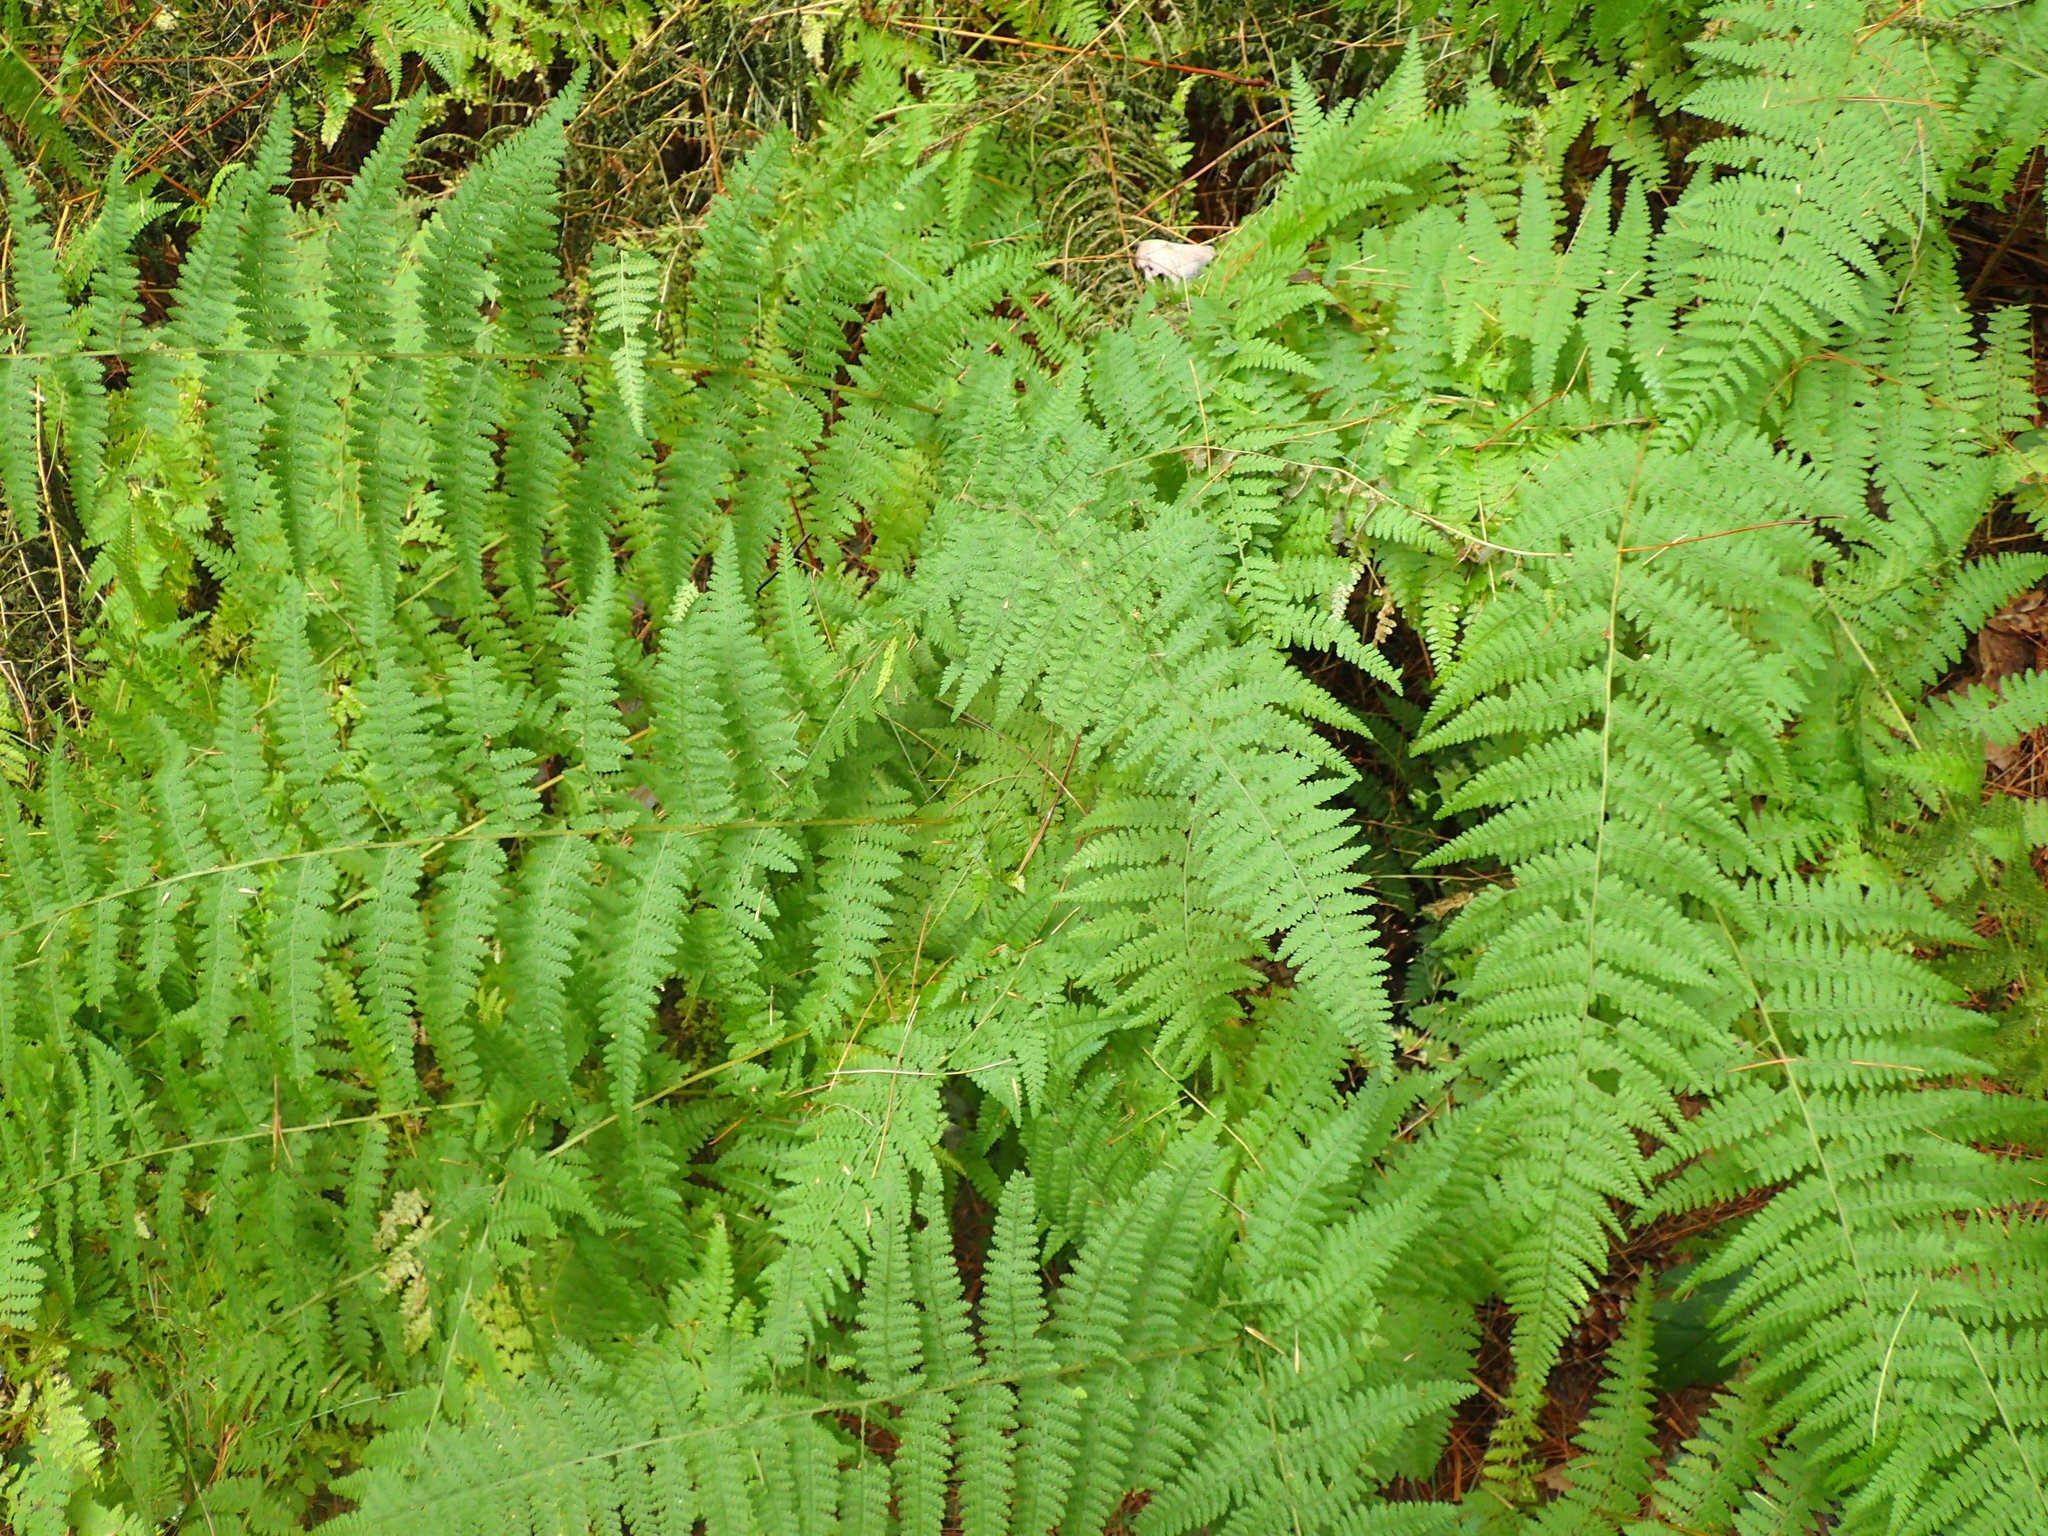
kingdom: Plantae
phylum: Tracheophyta
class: Polypodiopsida
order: Polypodiales
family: Dennstaedtiaceae
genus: Sitobolium
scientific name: Sitobolium punctilobum
